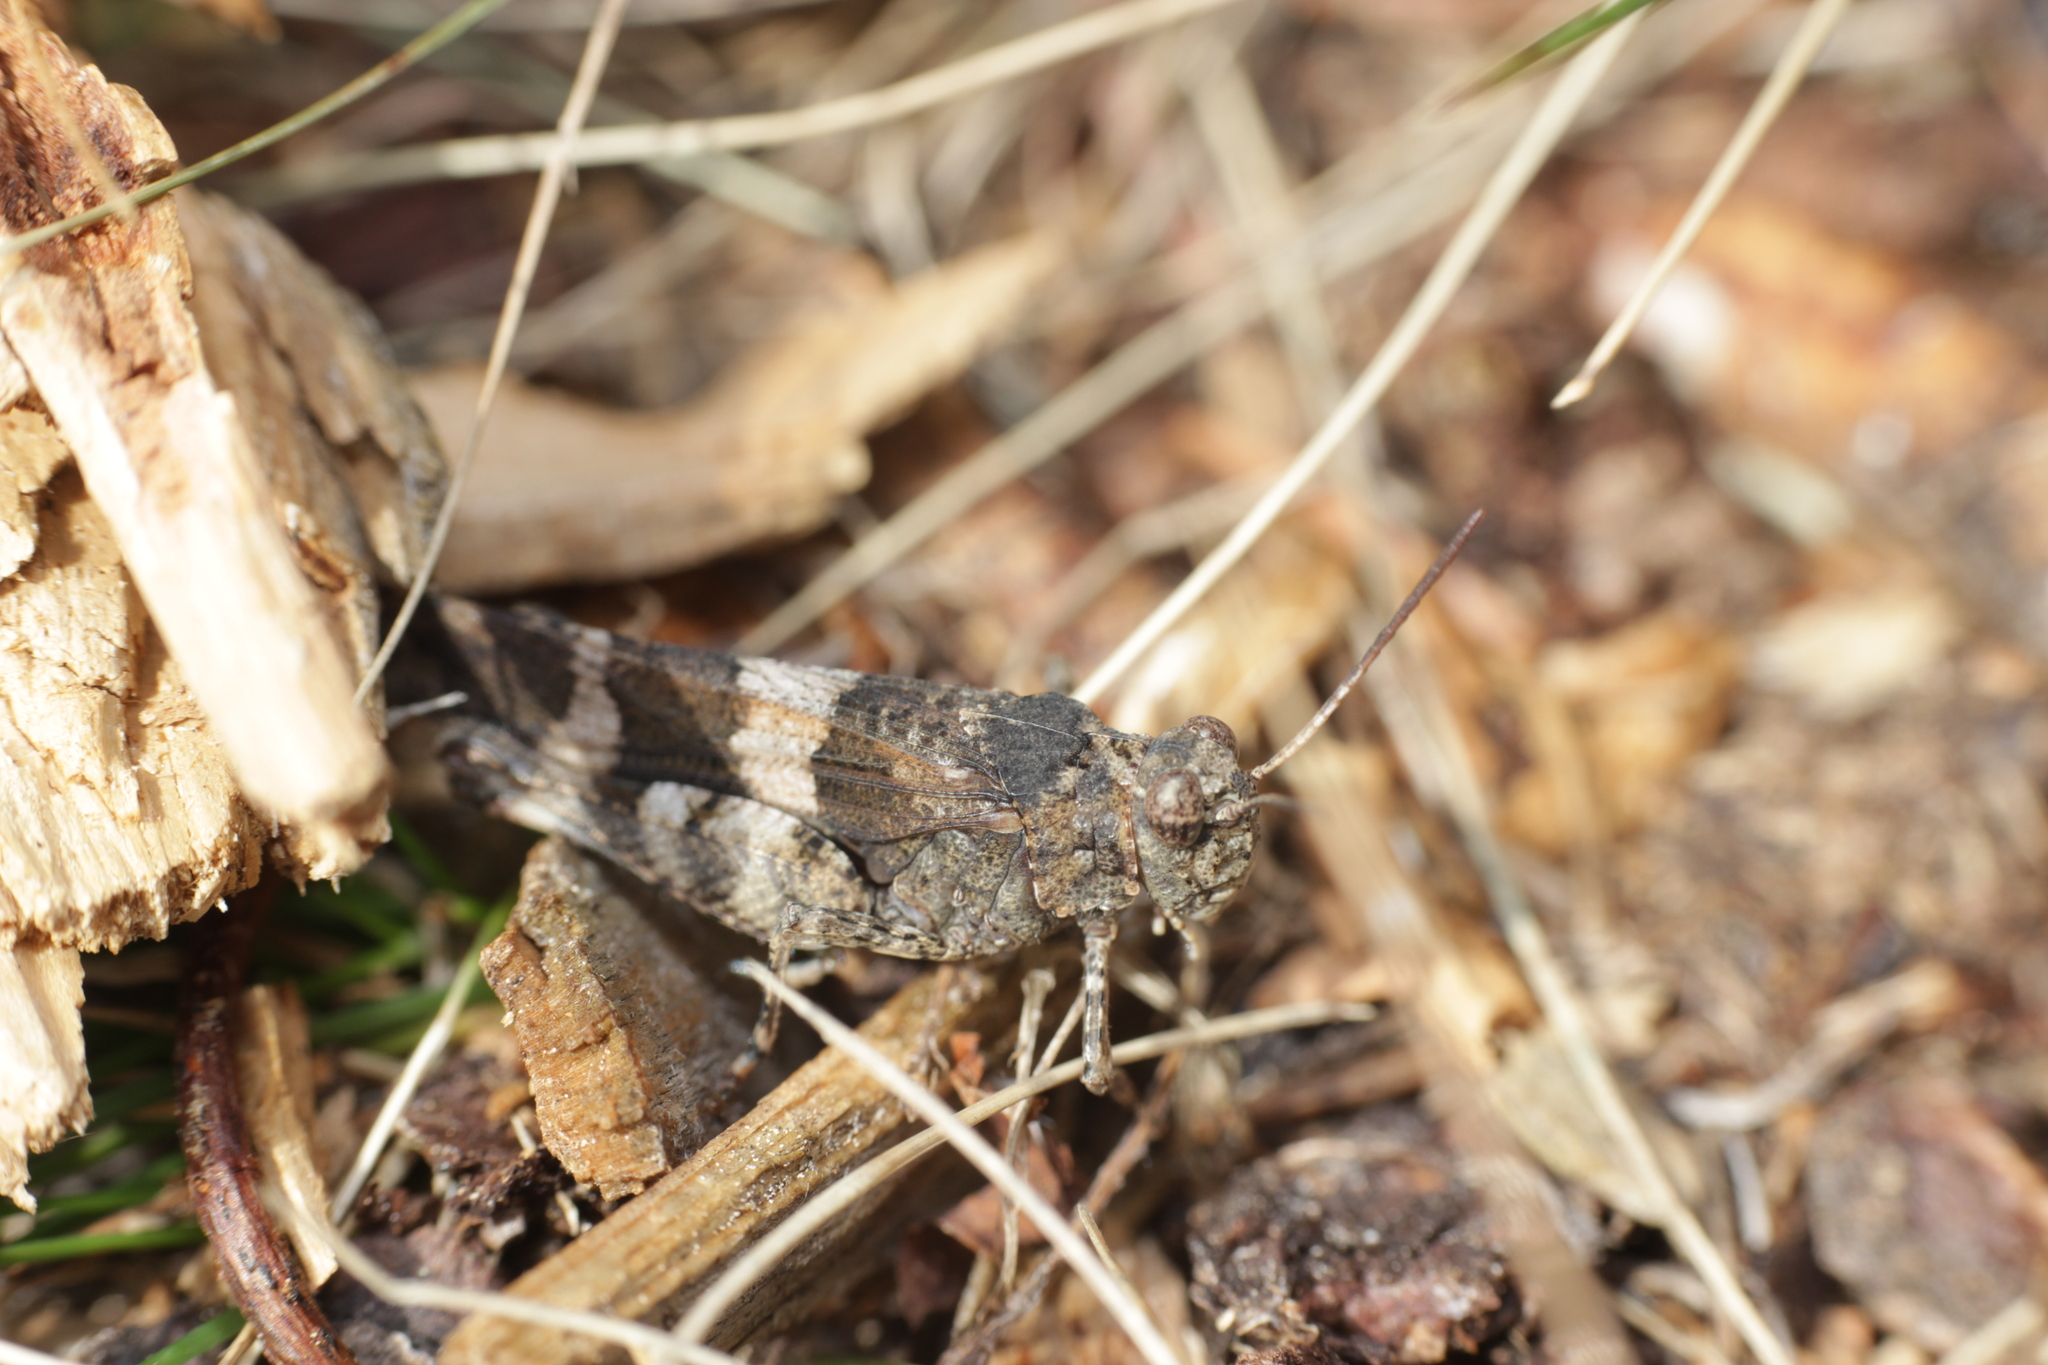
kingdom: Animalia
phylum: Arthropoda
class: Insecta
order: Orthoptera
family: Acrididae
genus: Oedipoda
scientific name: Oedipoda caerulescens
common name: Blue-winged grasshopper
